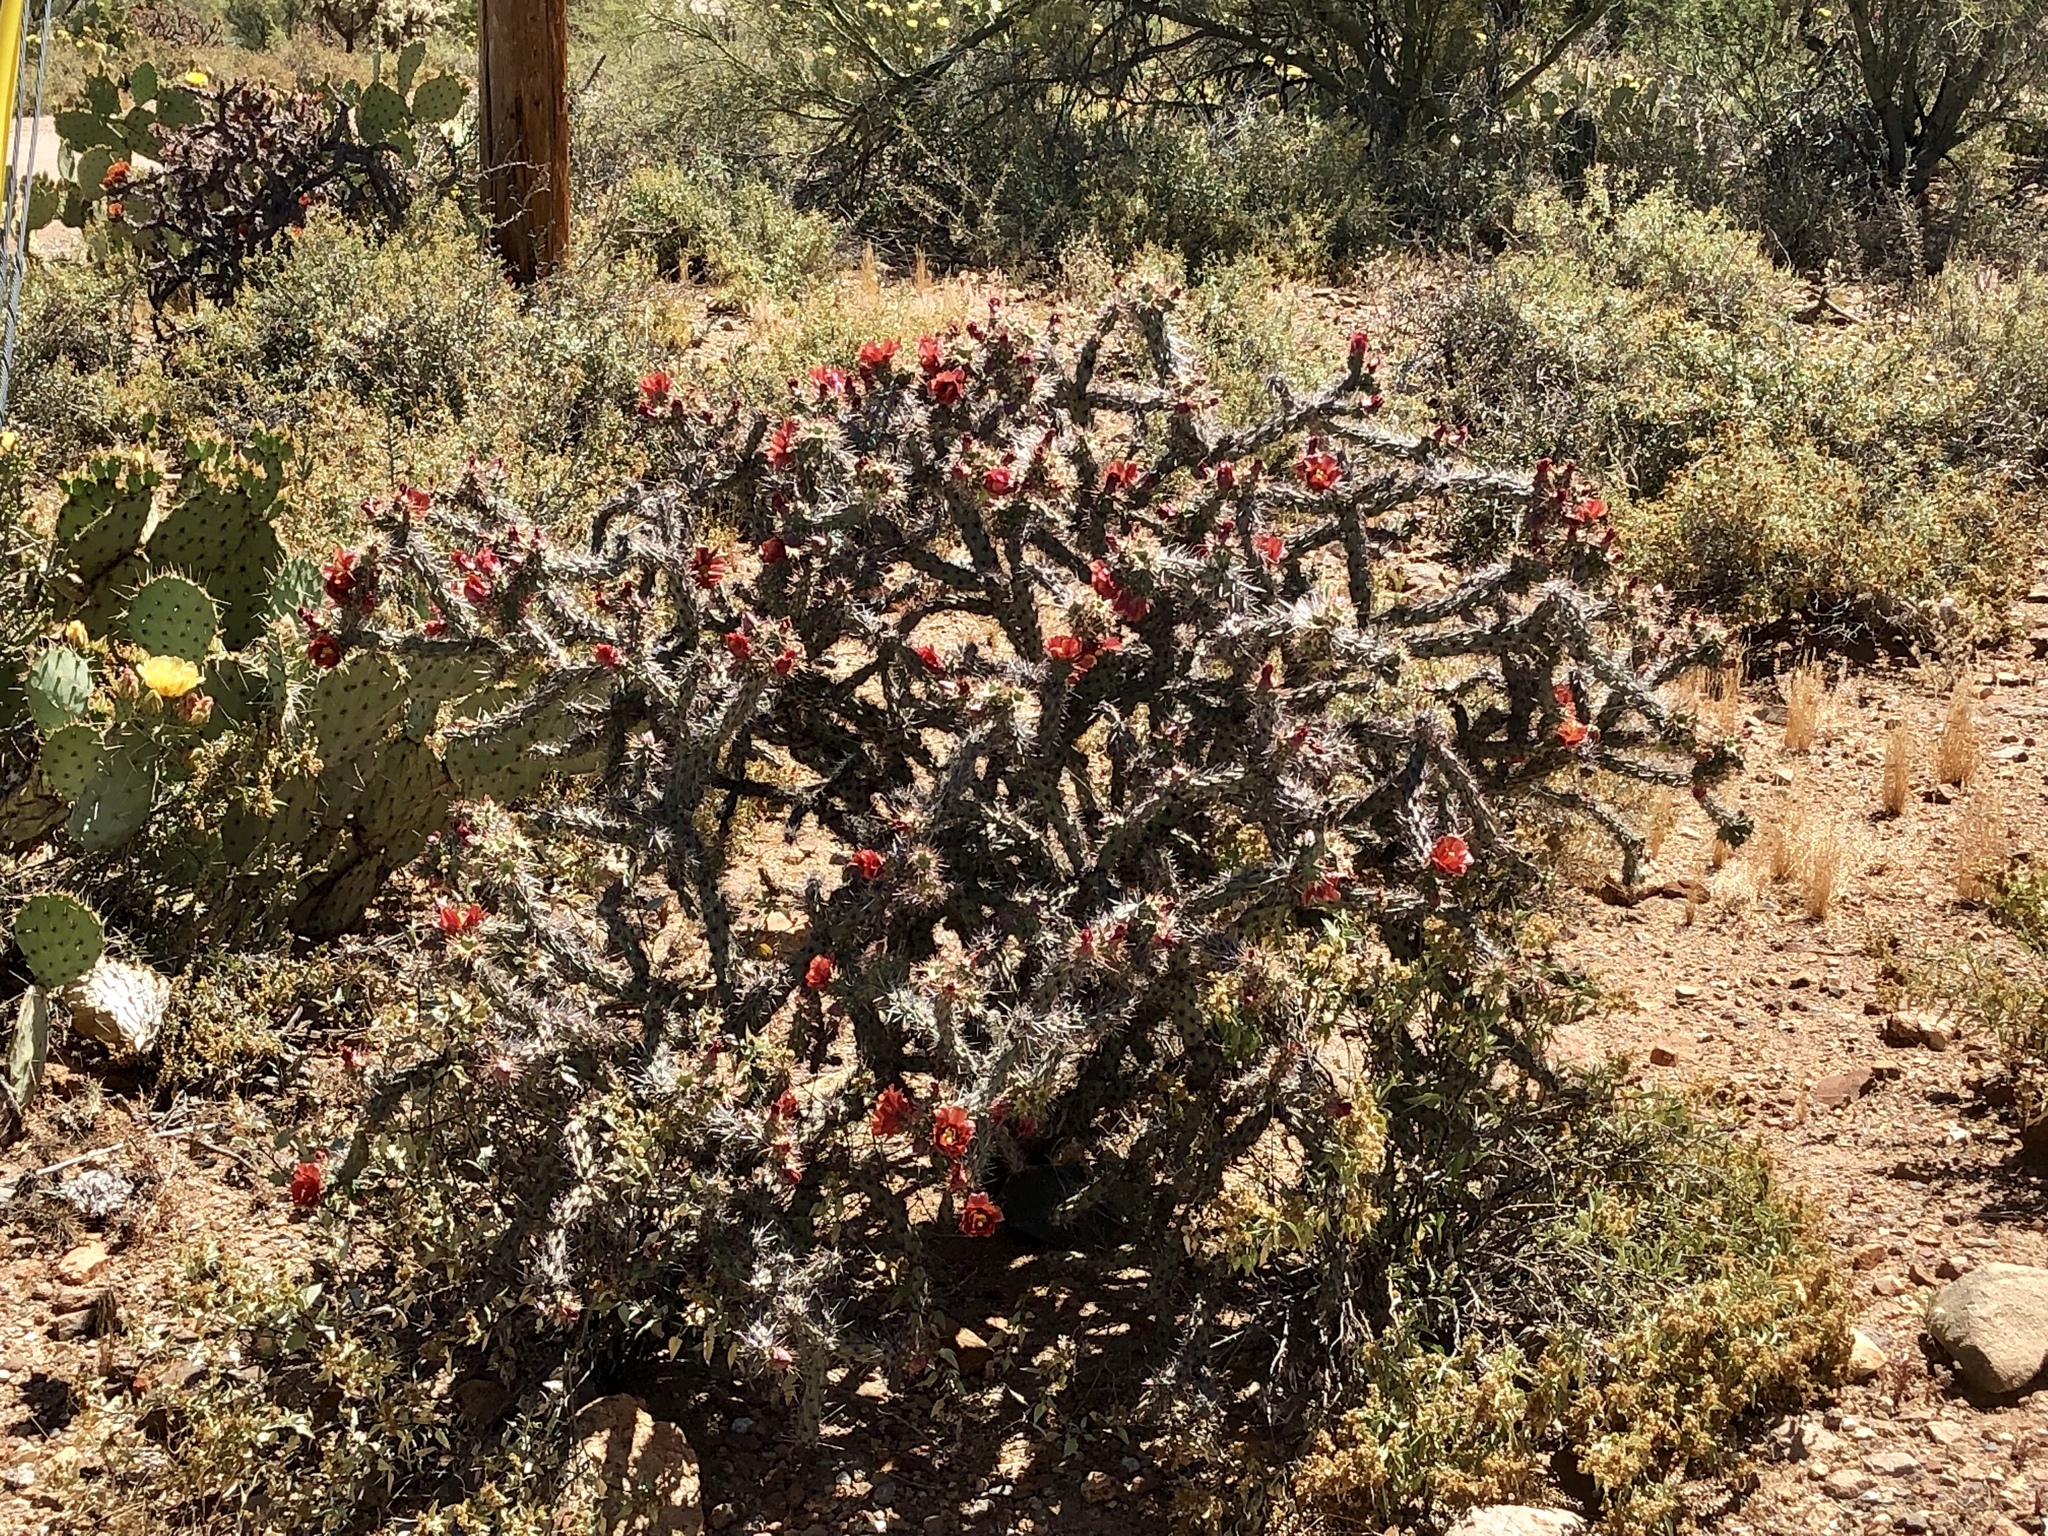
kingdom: Plantae
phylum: Tracheophyta
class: Magnoliopsida
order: Caryophyllales
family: Cactaceae
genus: Cylindropuntia
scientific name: Cylindropuntia thurberi
